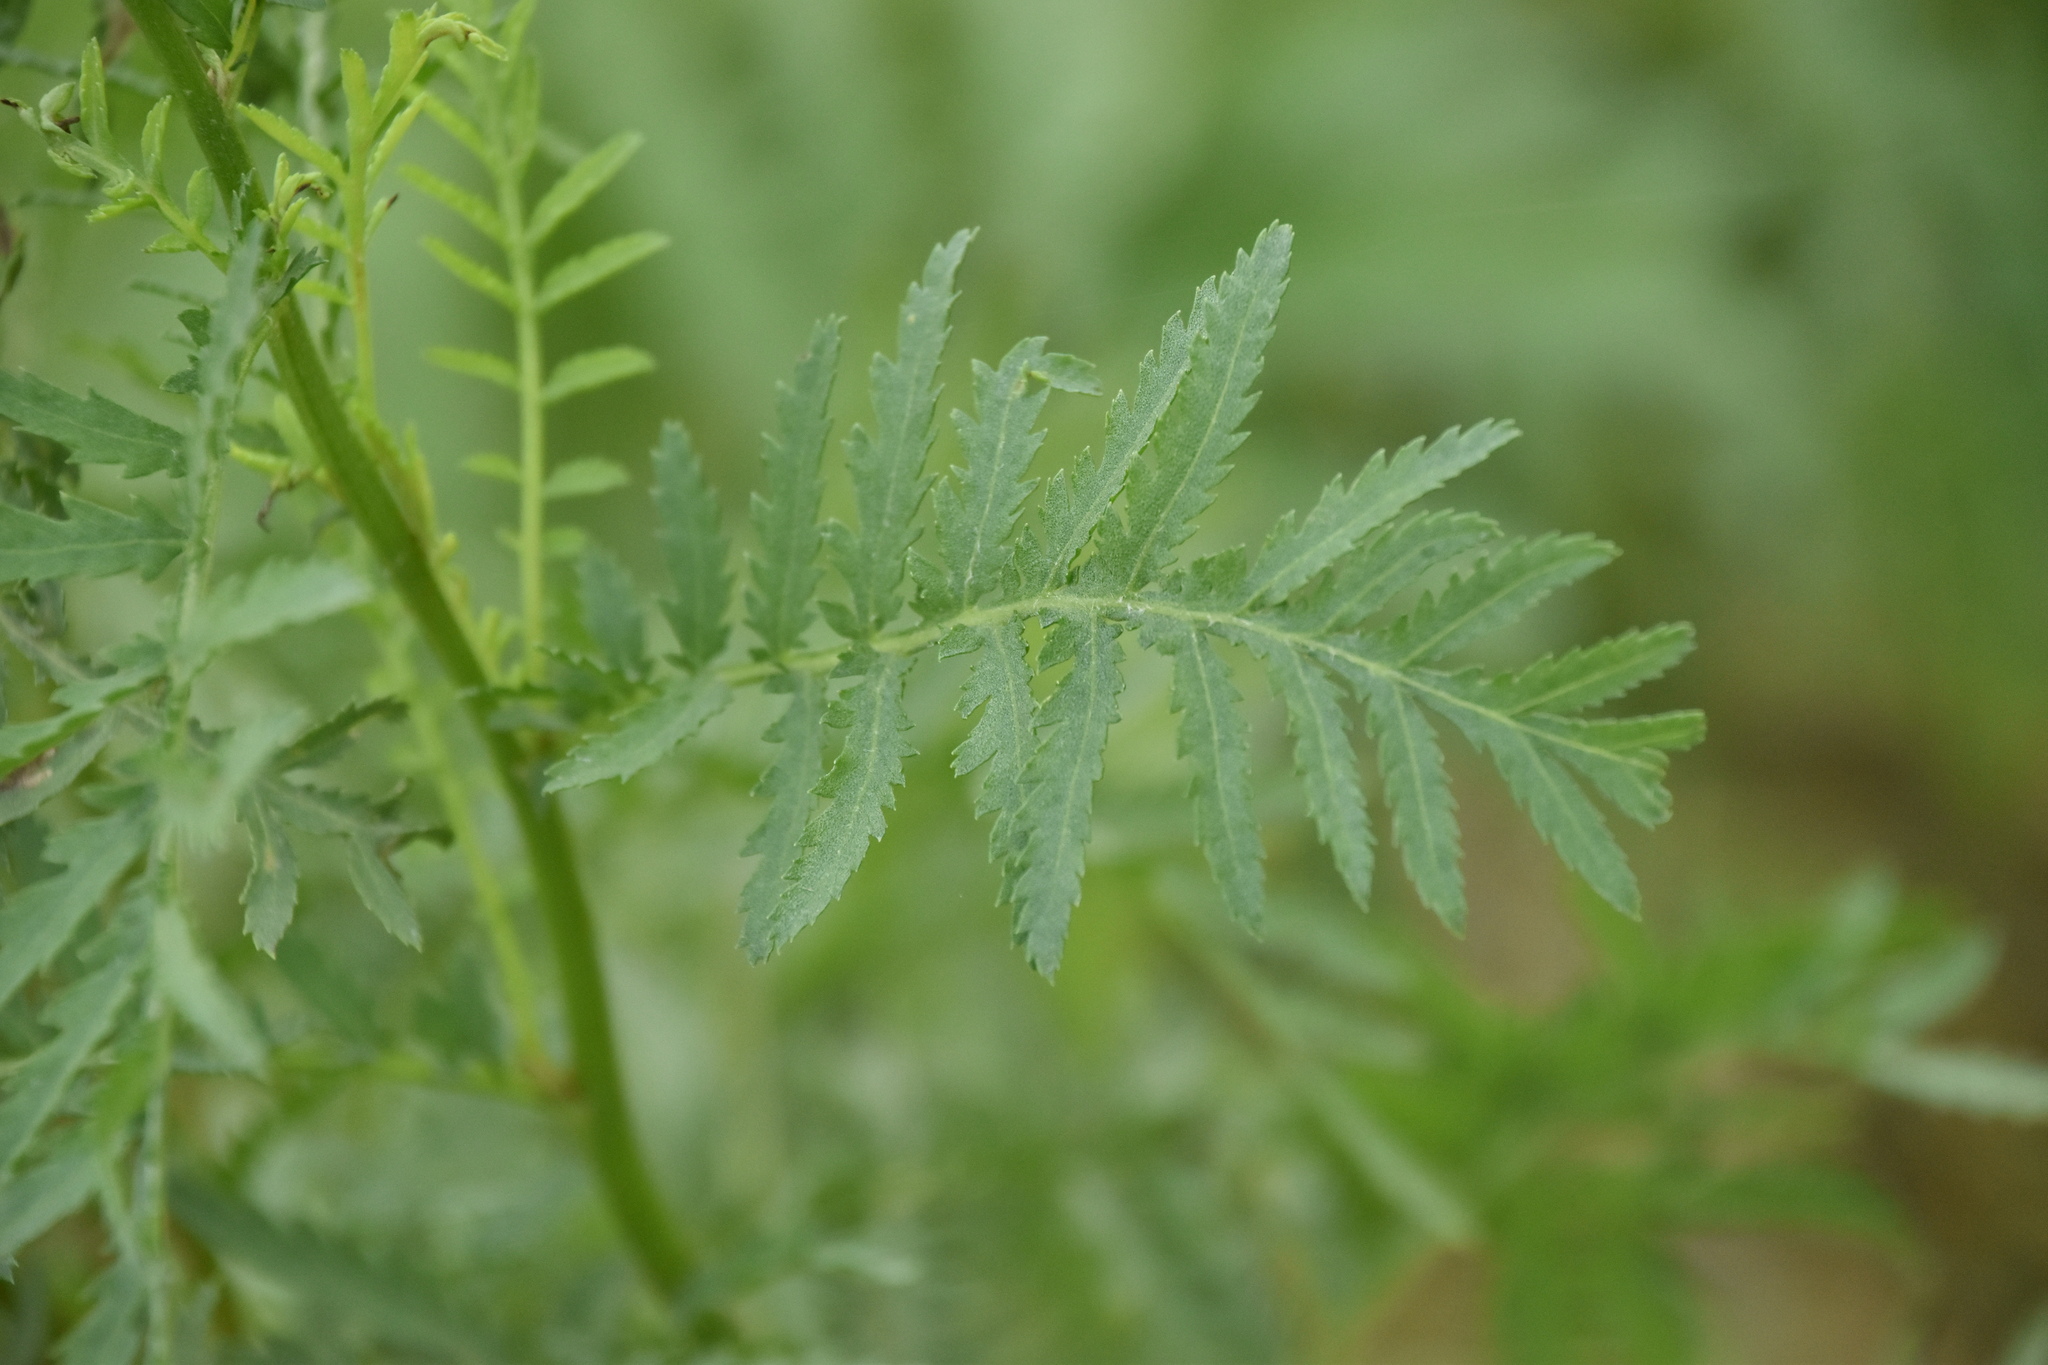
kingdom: Plantae
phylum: Tracheophyta
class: Magnoliopsida
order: Asterales
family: Asteraceae
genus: Tanacetum
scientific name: Tanacetum vulgare
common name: Common tansy
